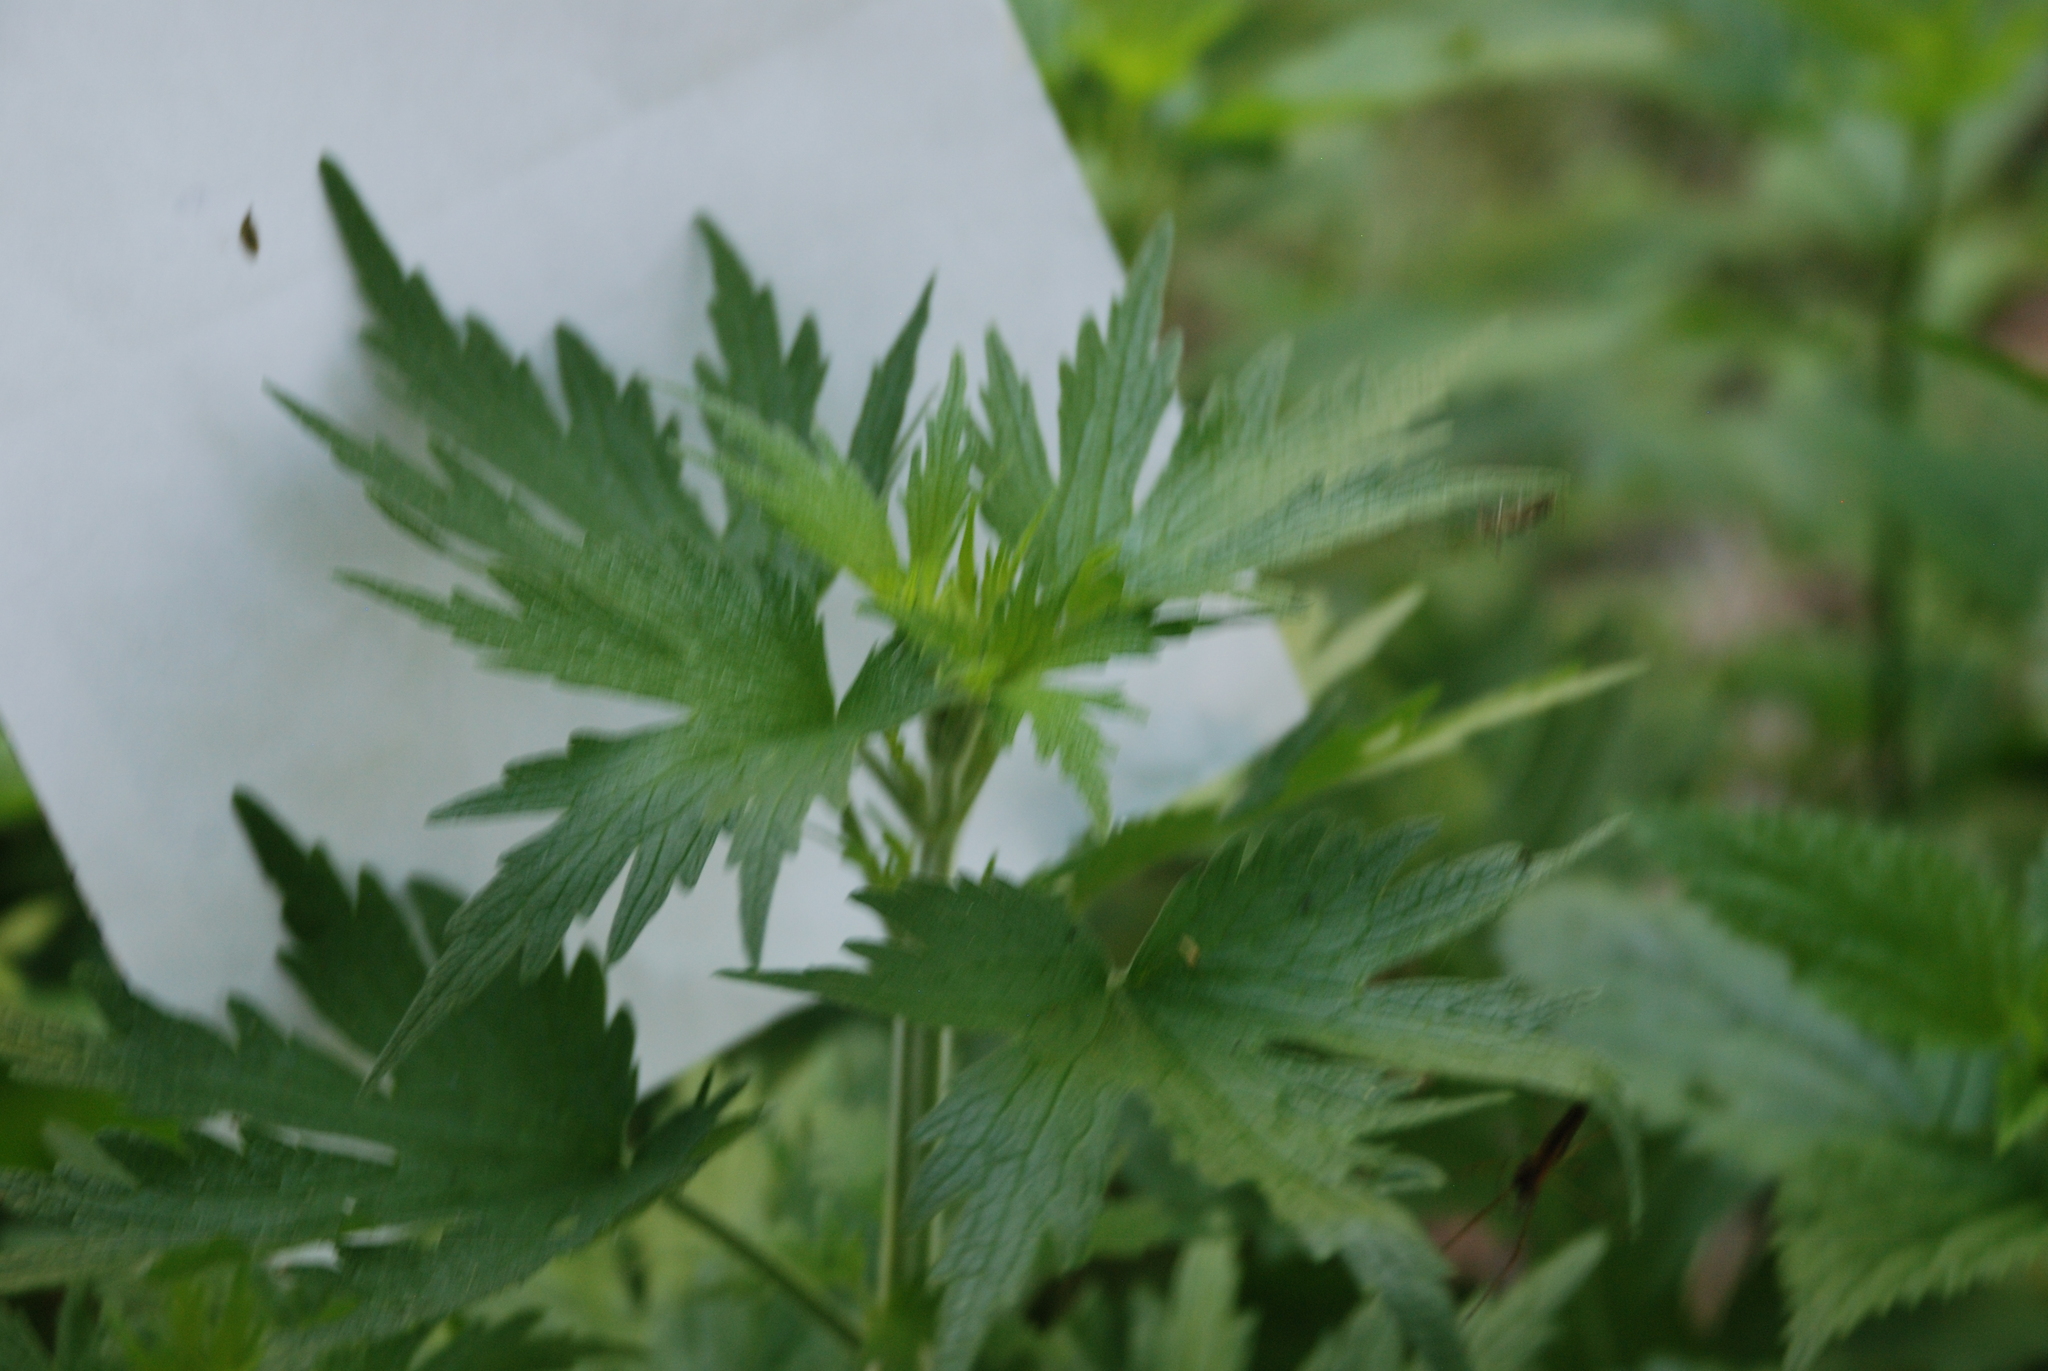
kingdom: Plantae
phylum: Tracheophyta
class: Magnoliopsida
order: Lamiales
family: Lamiaceae
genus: Leonurus
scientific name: Leonurus quinquelobatus
